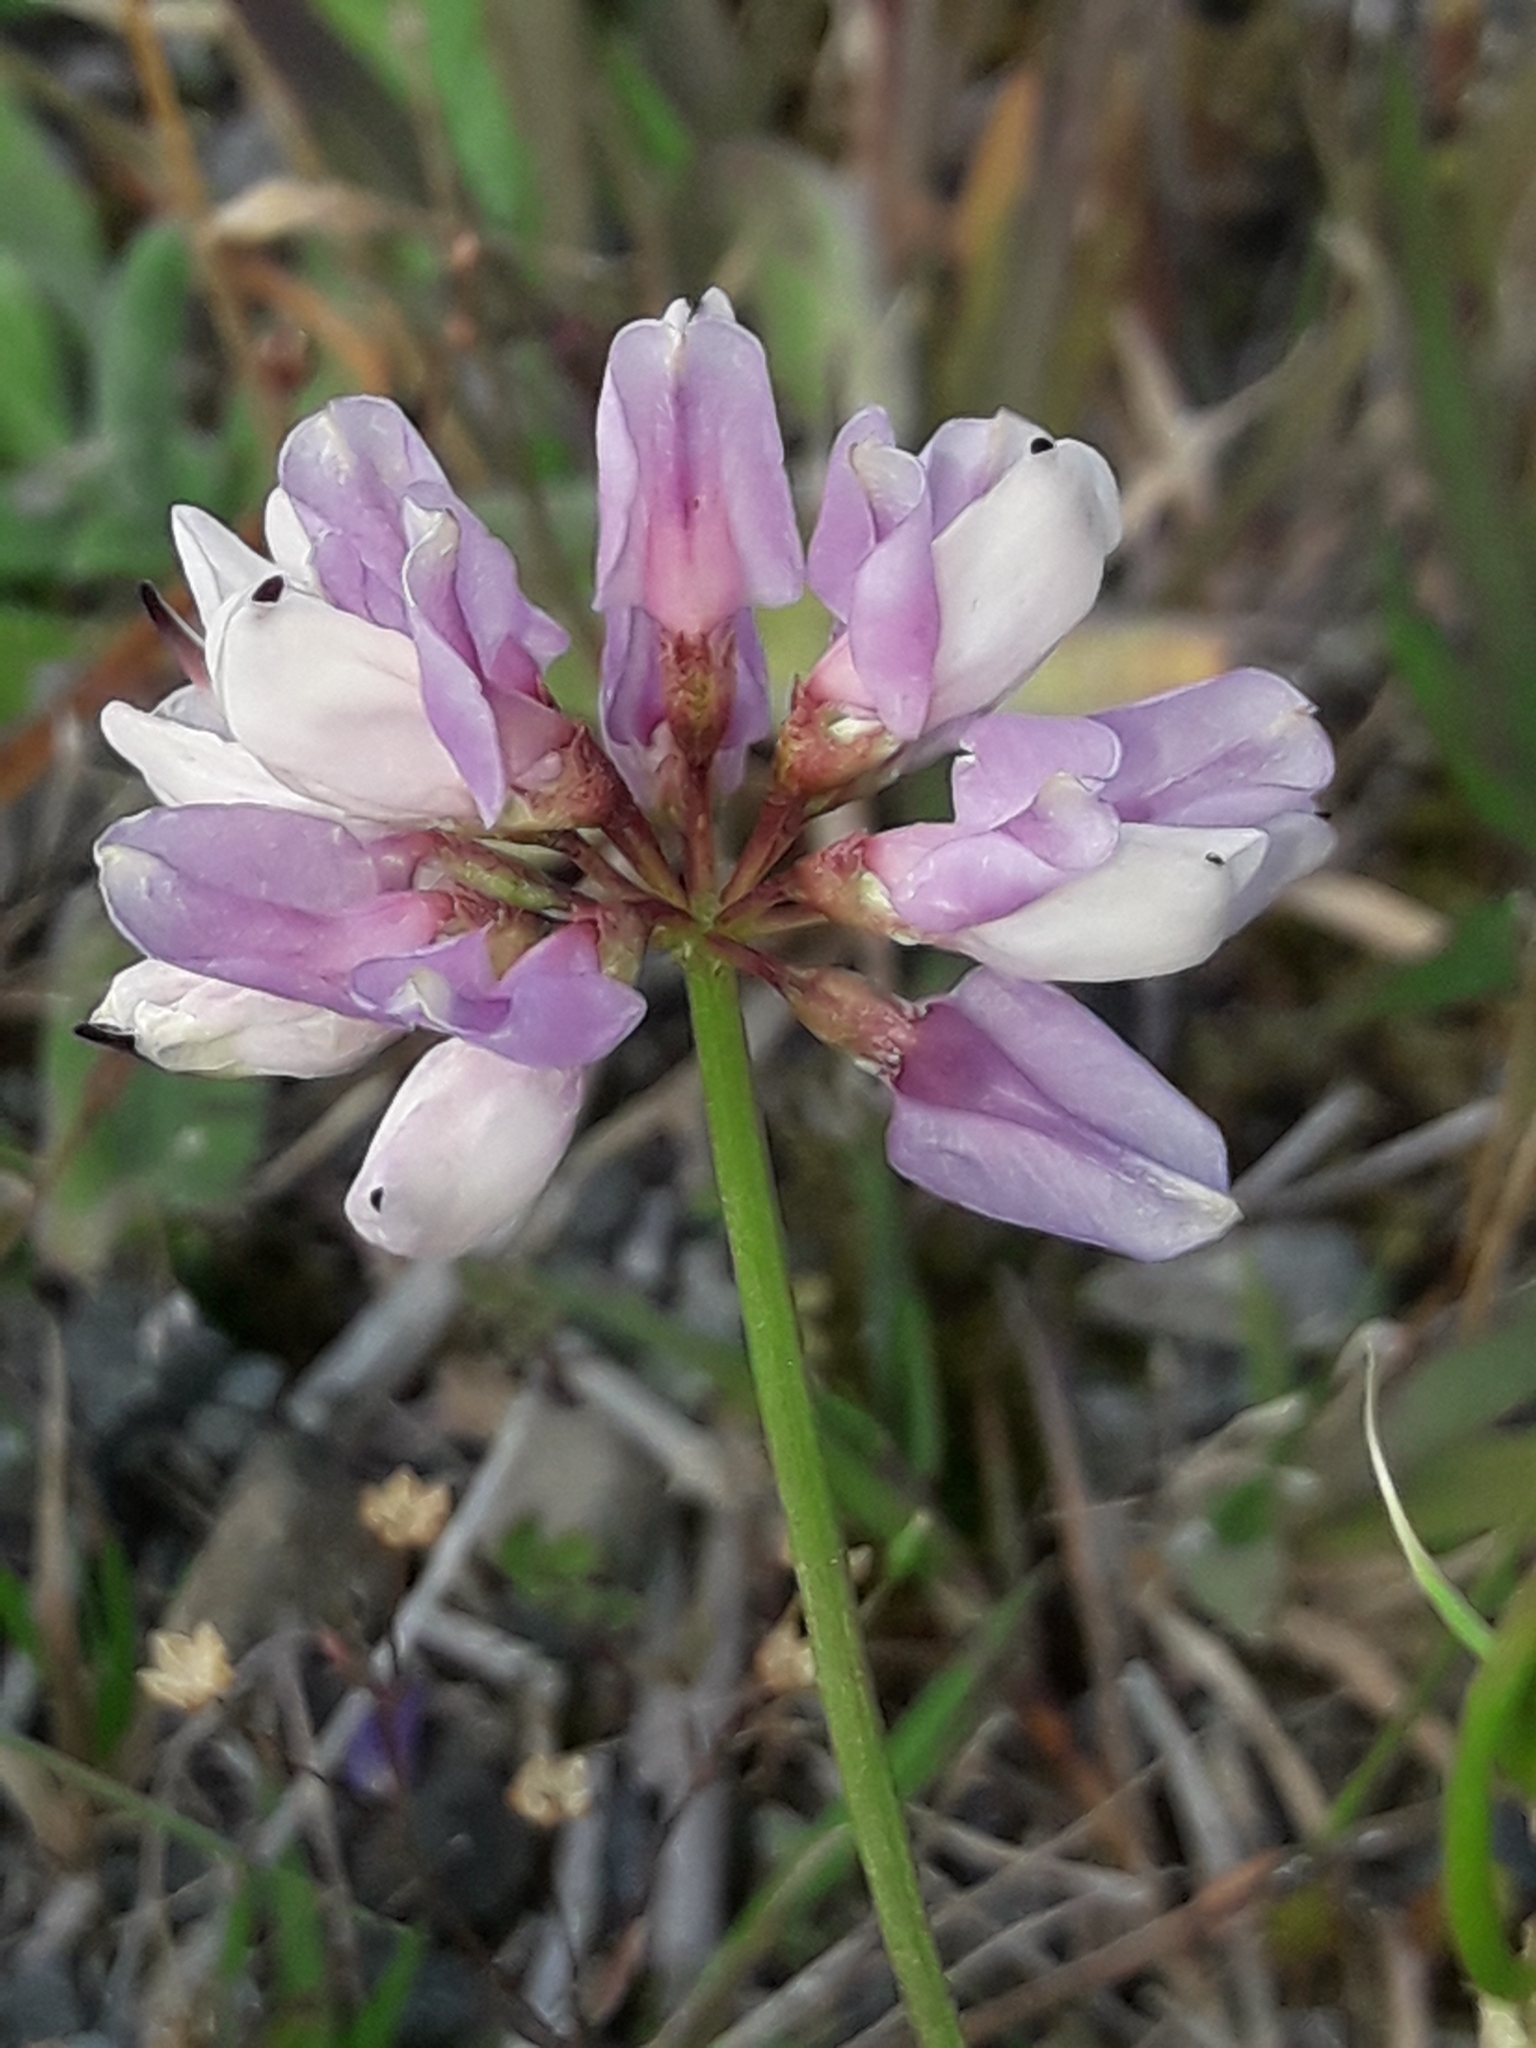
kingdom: Plantae
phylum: Tracheophyta
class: Magnoliopsida
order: Fabales
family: Fabaceae
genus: Coronilla
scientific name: Coronilla varia
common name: Crownvetch
